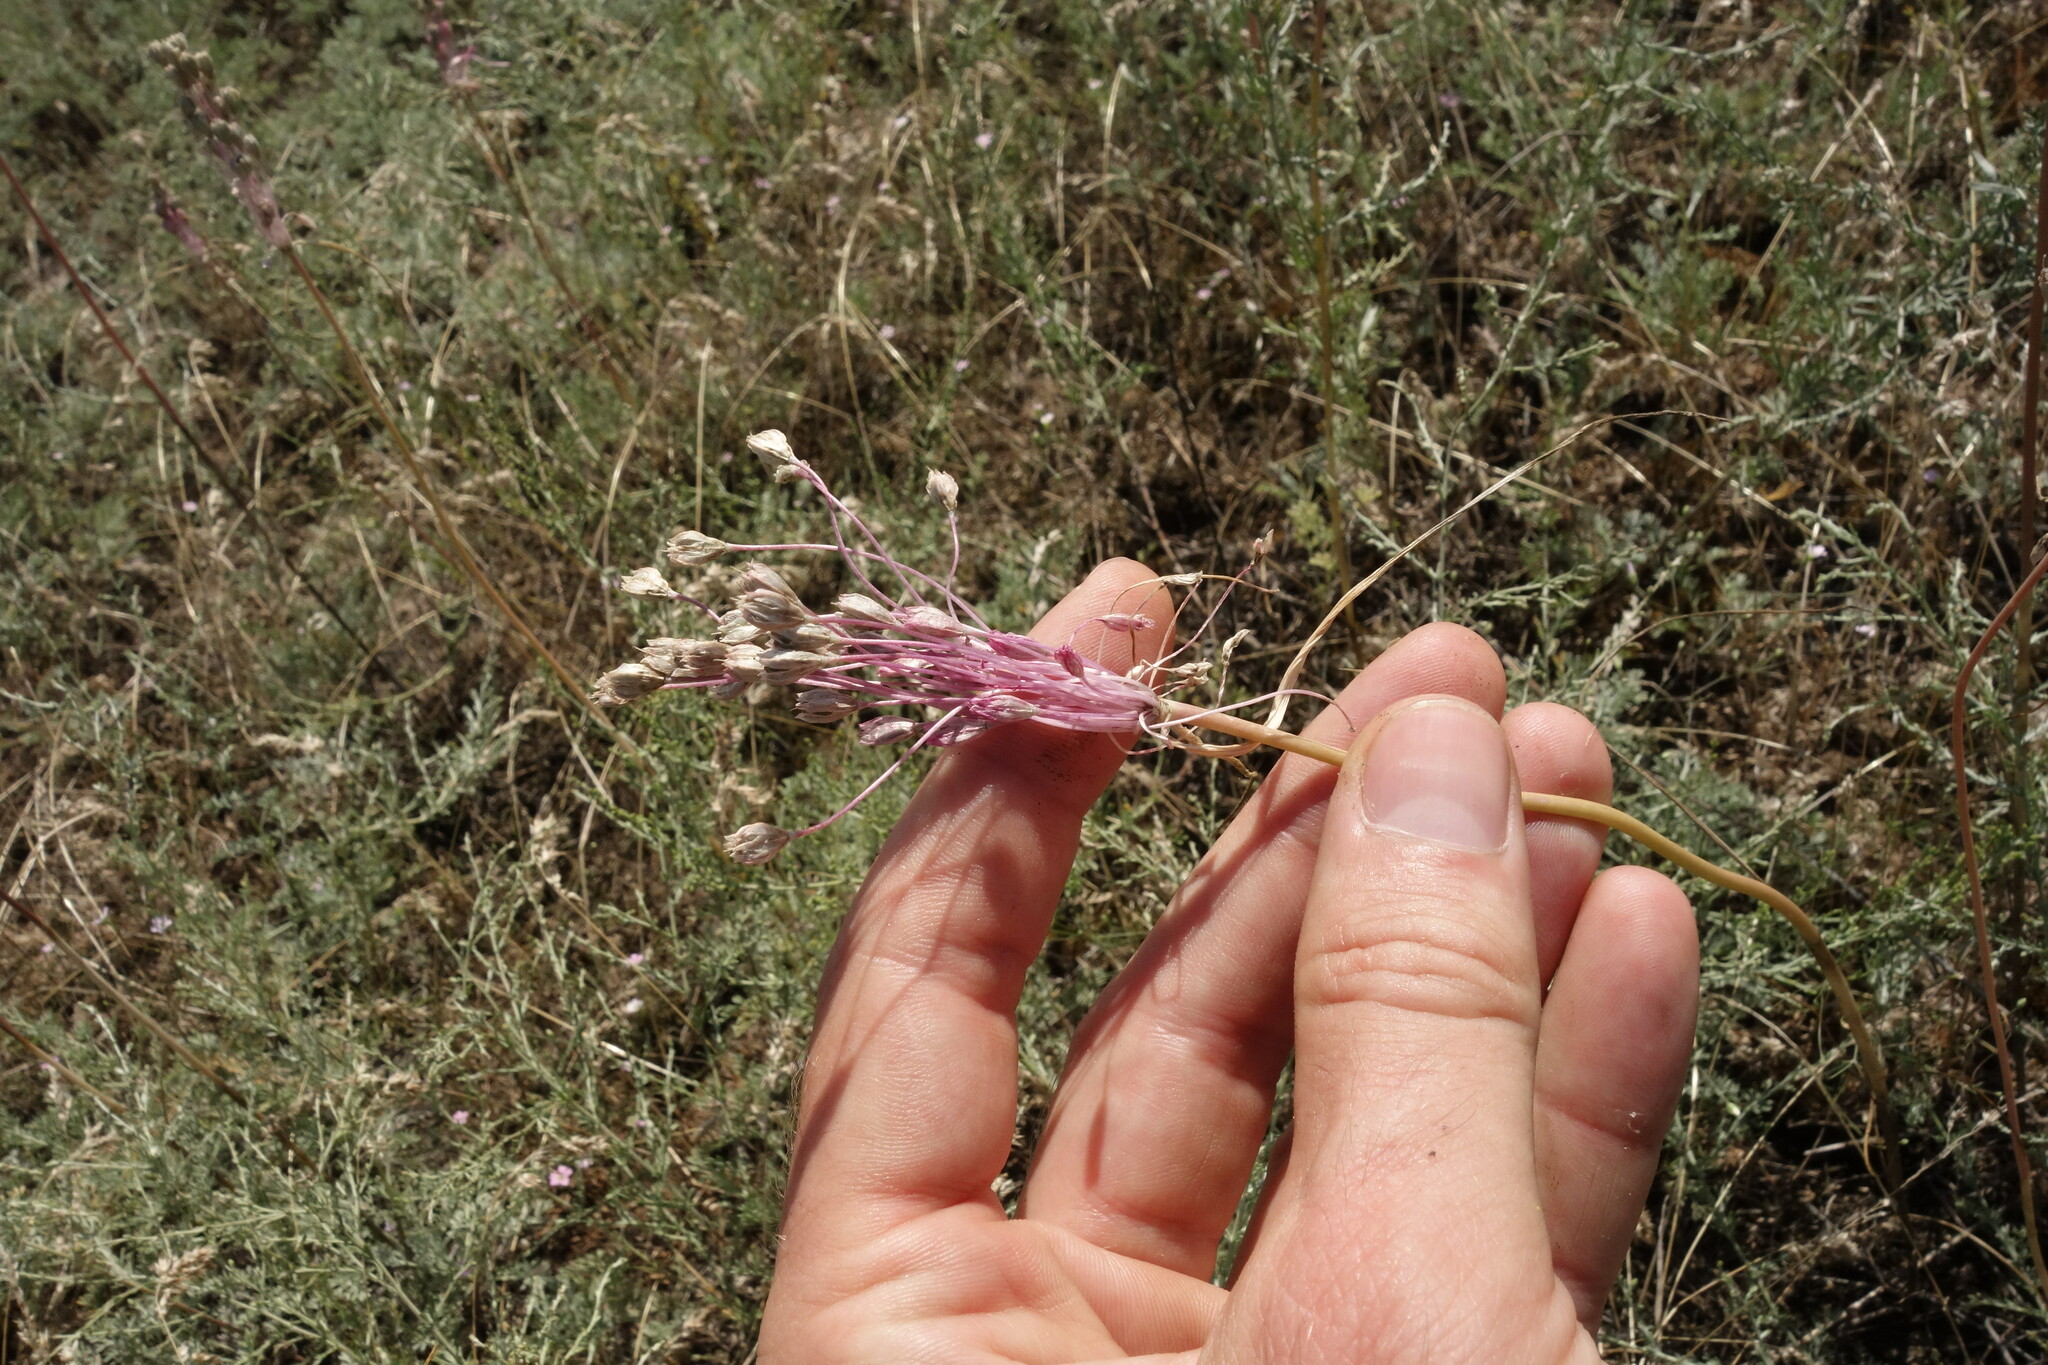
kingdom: Plantae
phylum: Tracheophyta
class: Liliopsida
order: Asparagales
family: Amaryllidaceae
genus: Allium
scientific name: Allium praescissum
